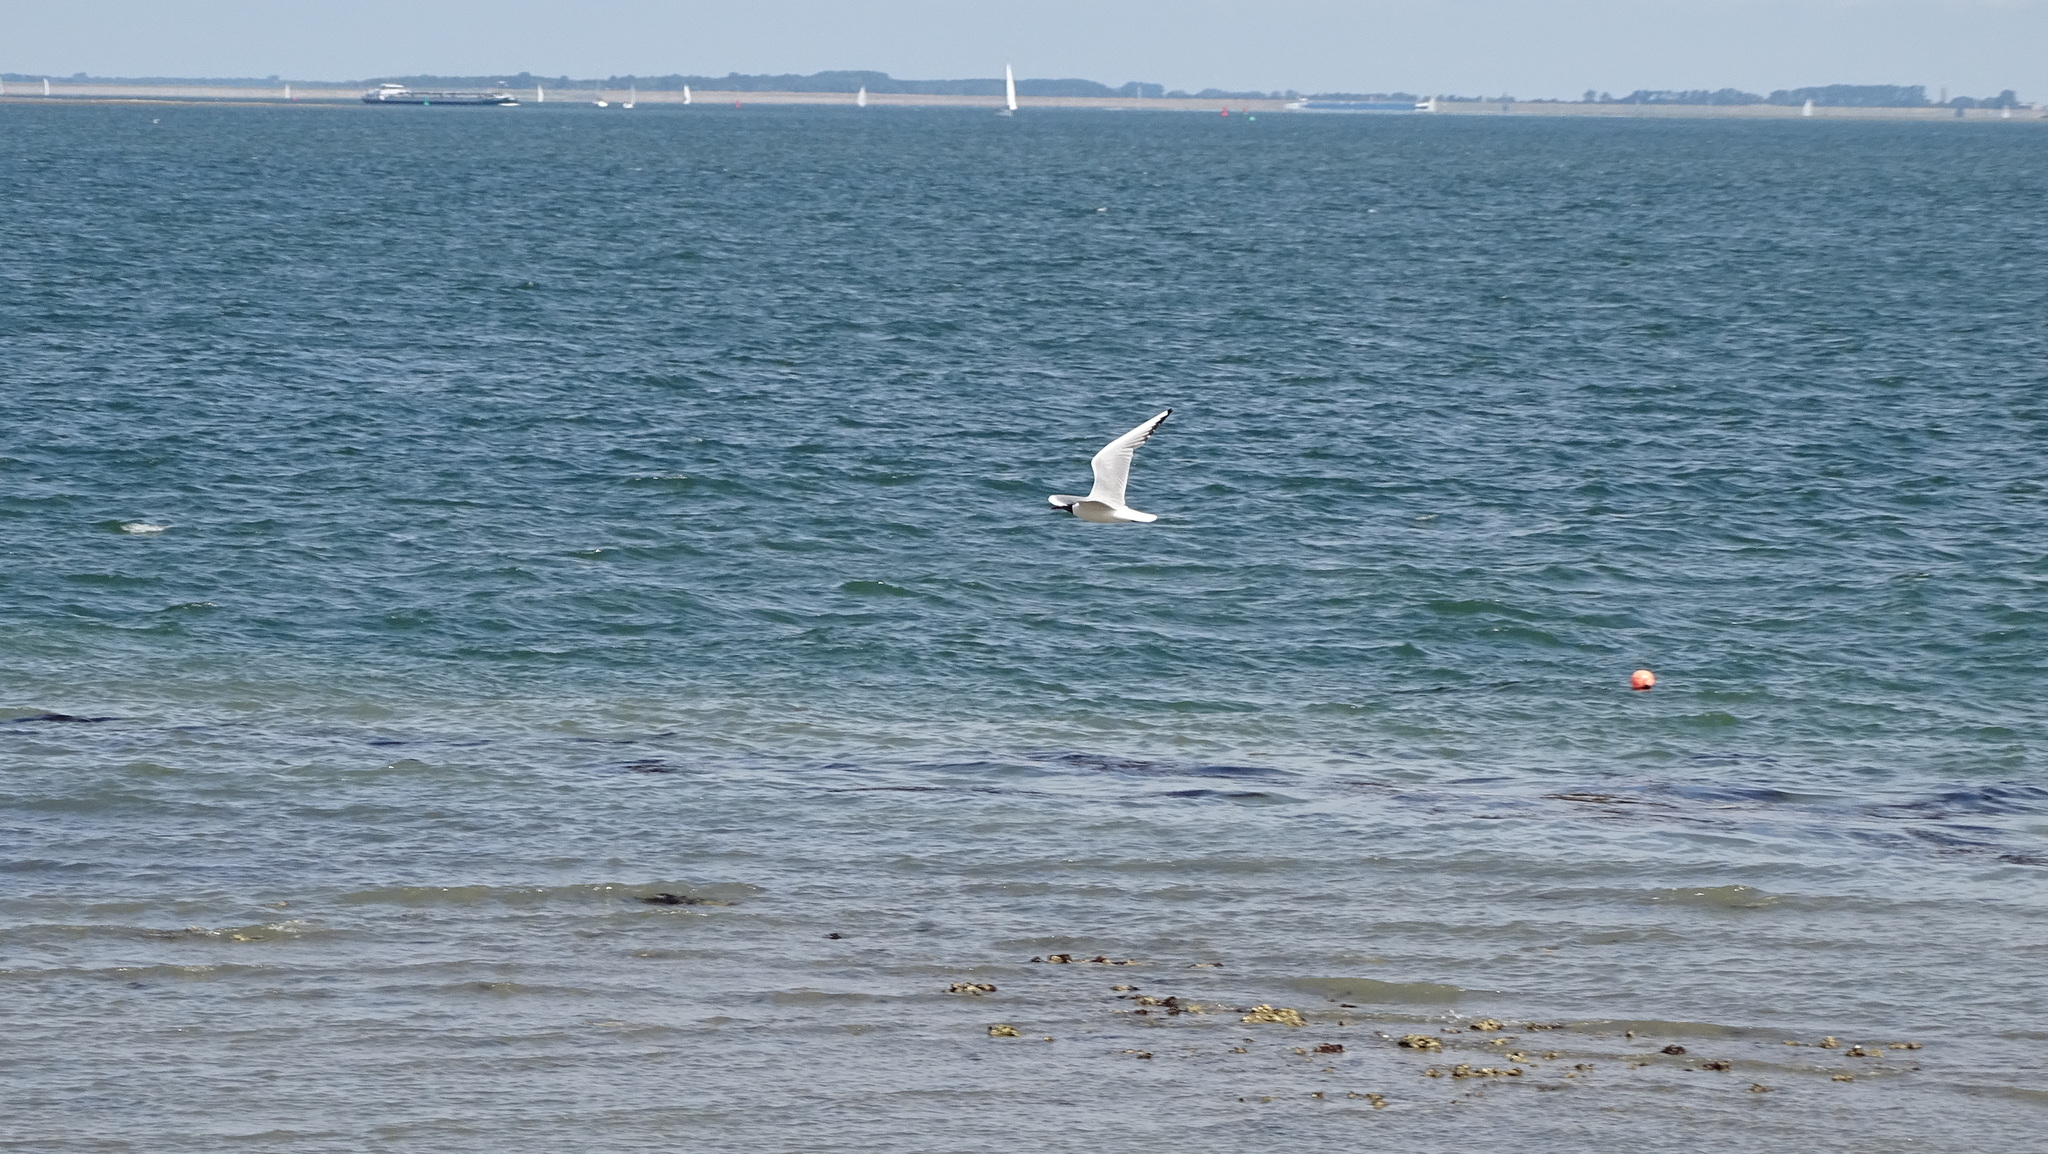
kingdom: Animalia
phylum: Chordata
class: Aves
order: Charadriiformes
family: Laridae
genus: Chroicocephalus
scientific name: Chroicocephalus ridibundus
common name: Black-headed gull
